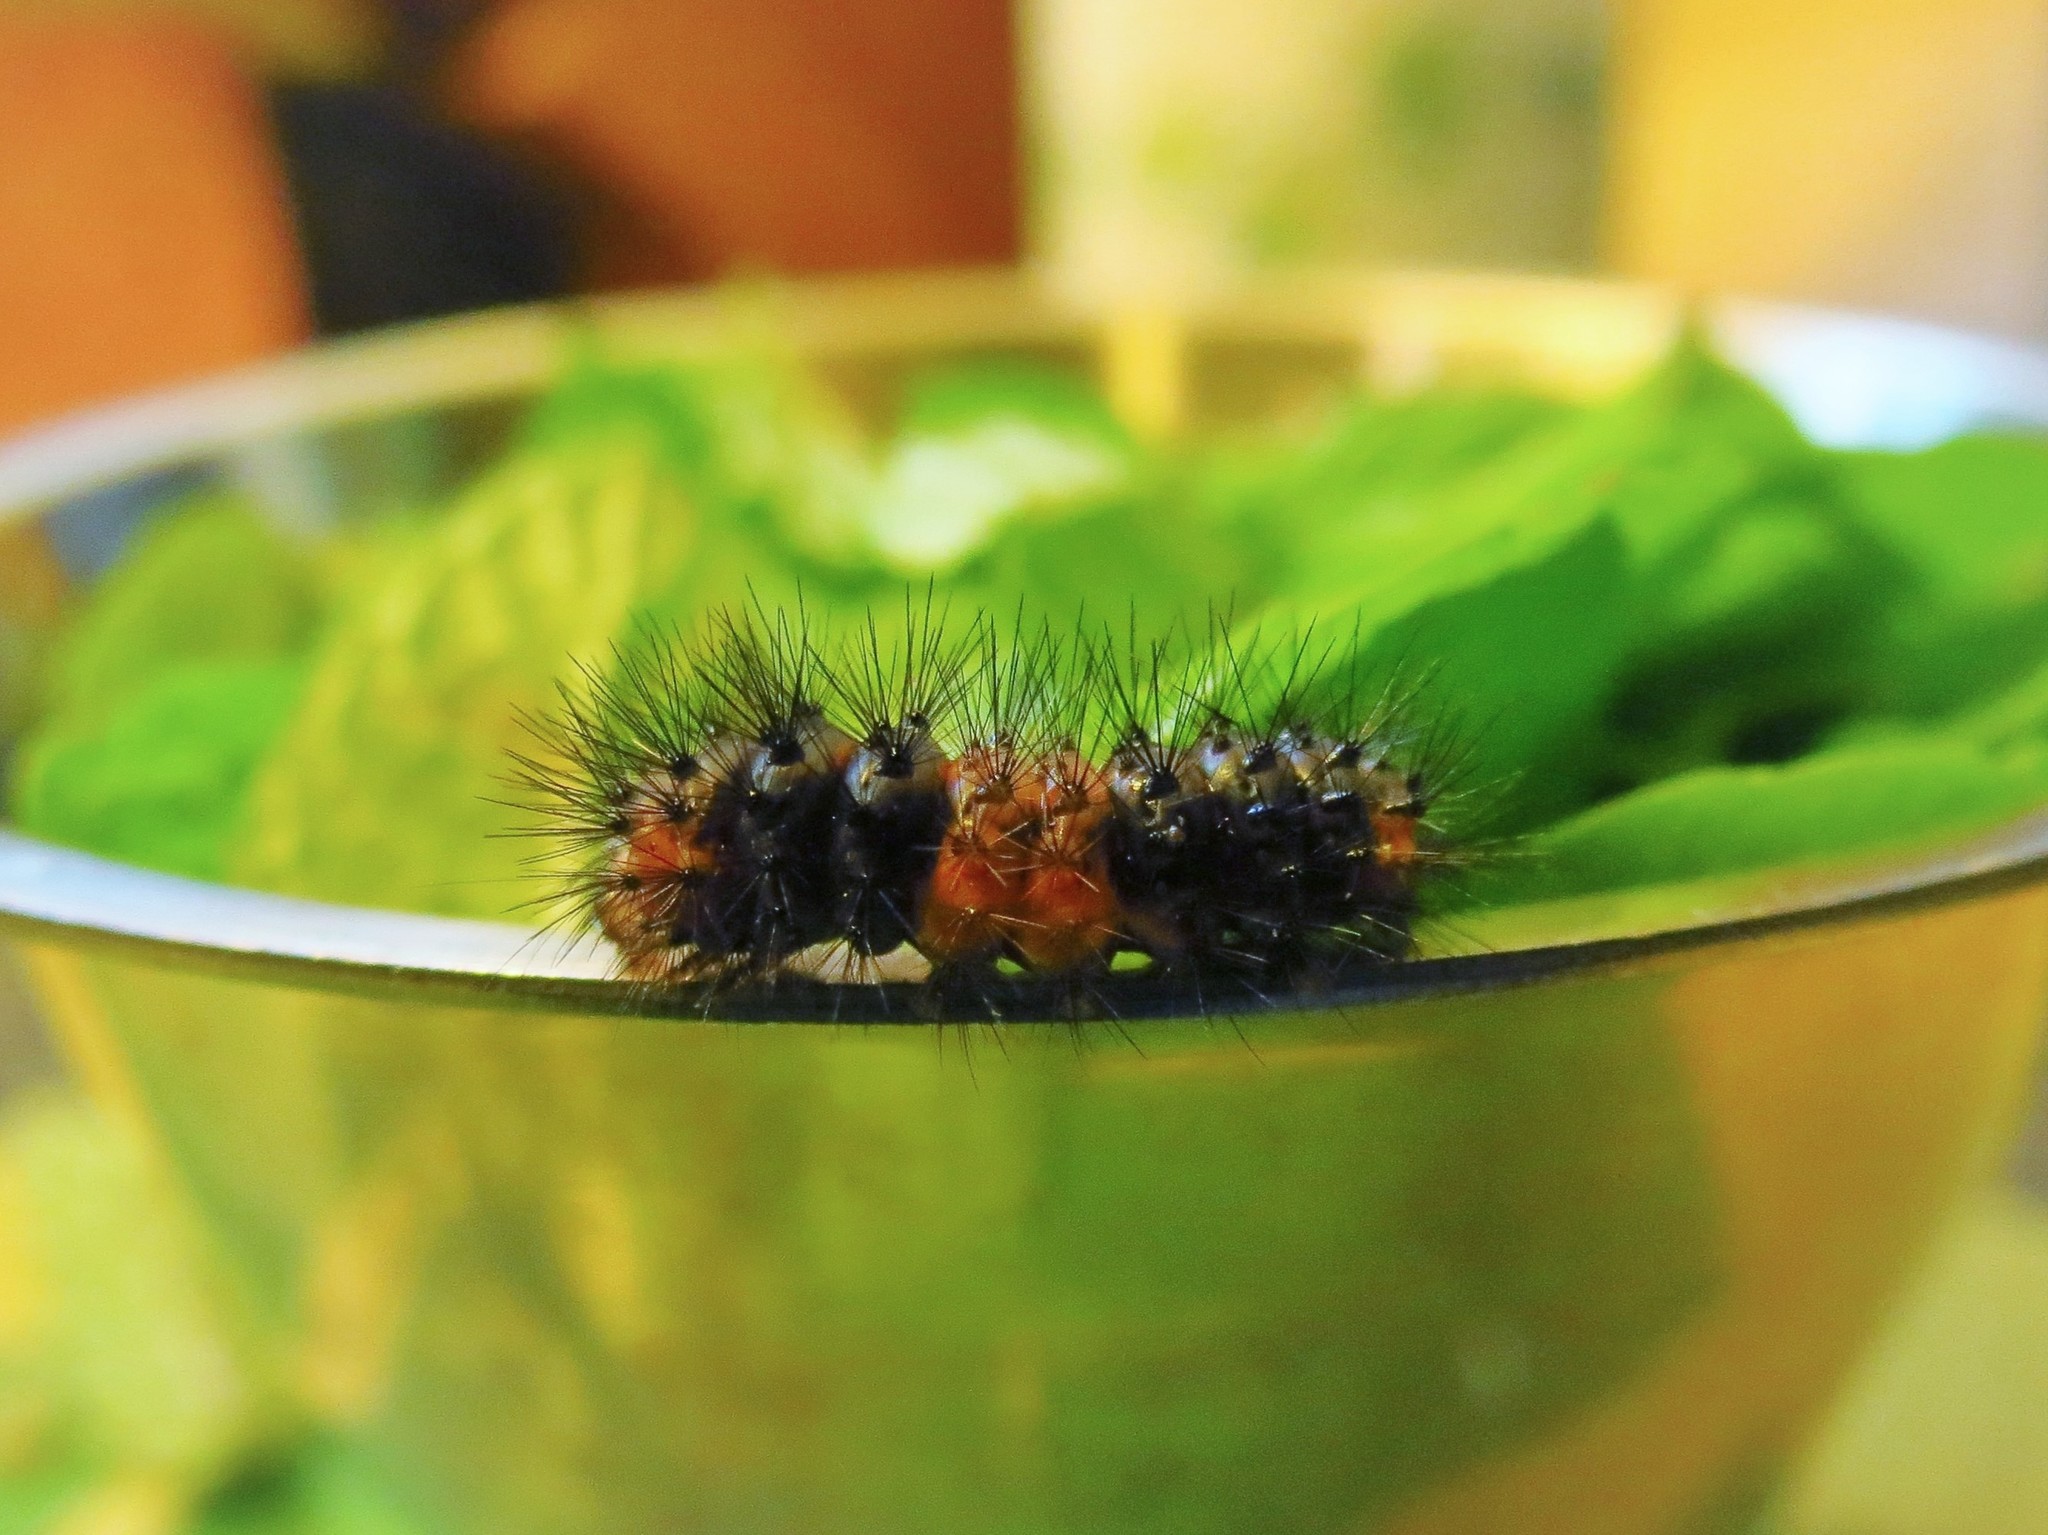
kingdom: Animalia
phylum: Arthropoda
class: Insecta
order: Lepidoptera
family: Erebidae
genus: Hypercompe
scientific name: Hypercompe scribonia
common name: Giant leopard moth
